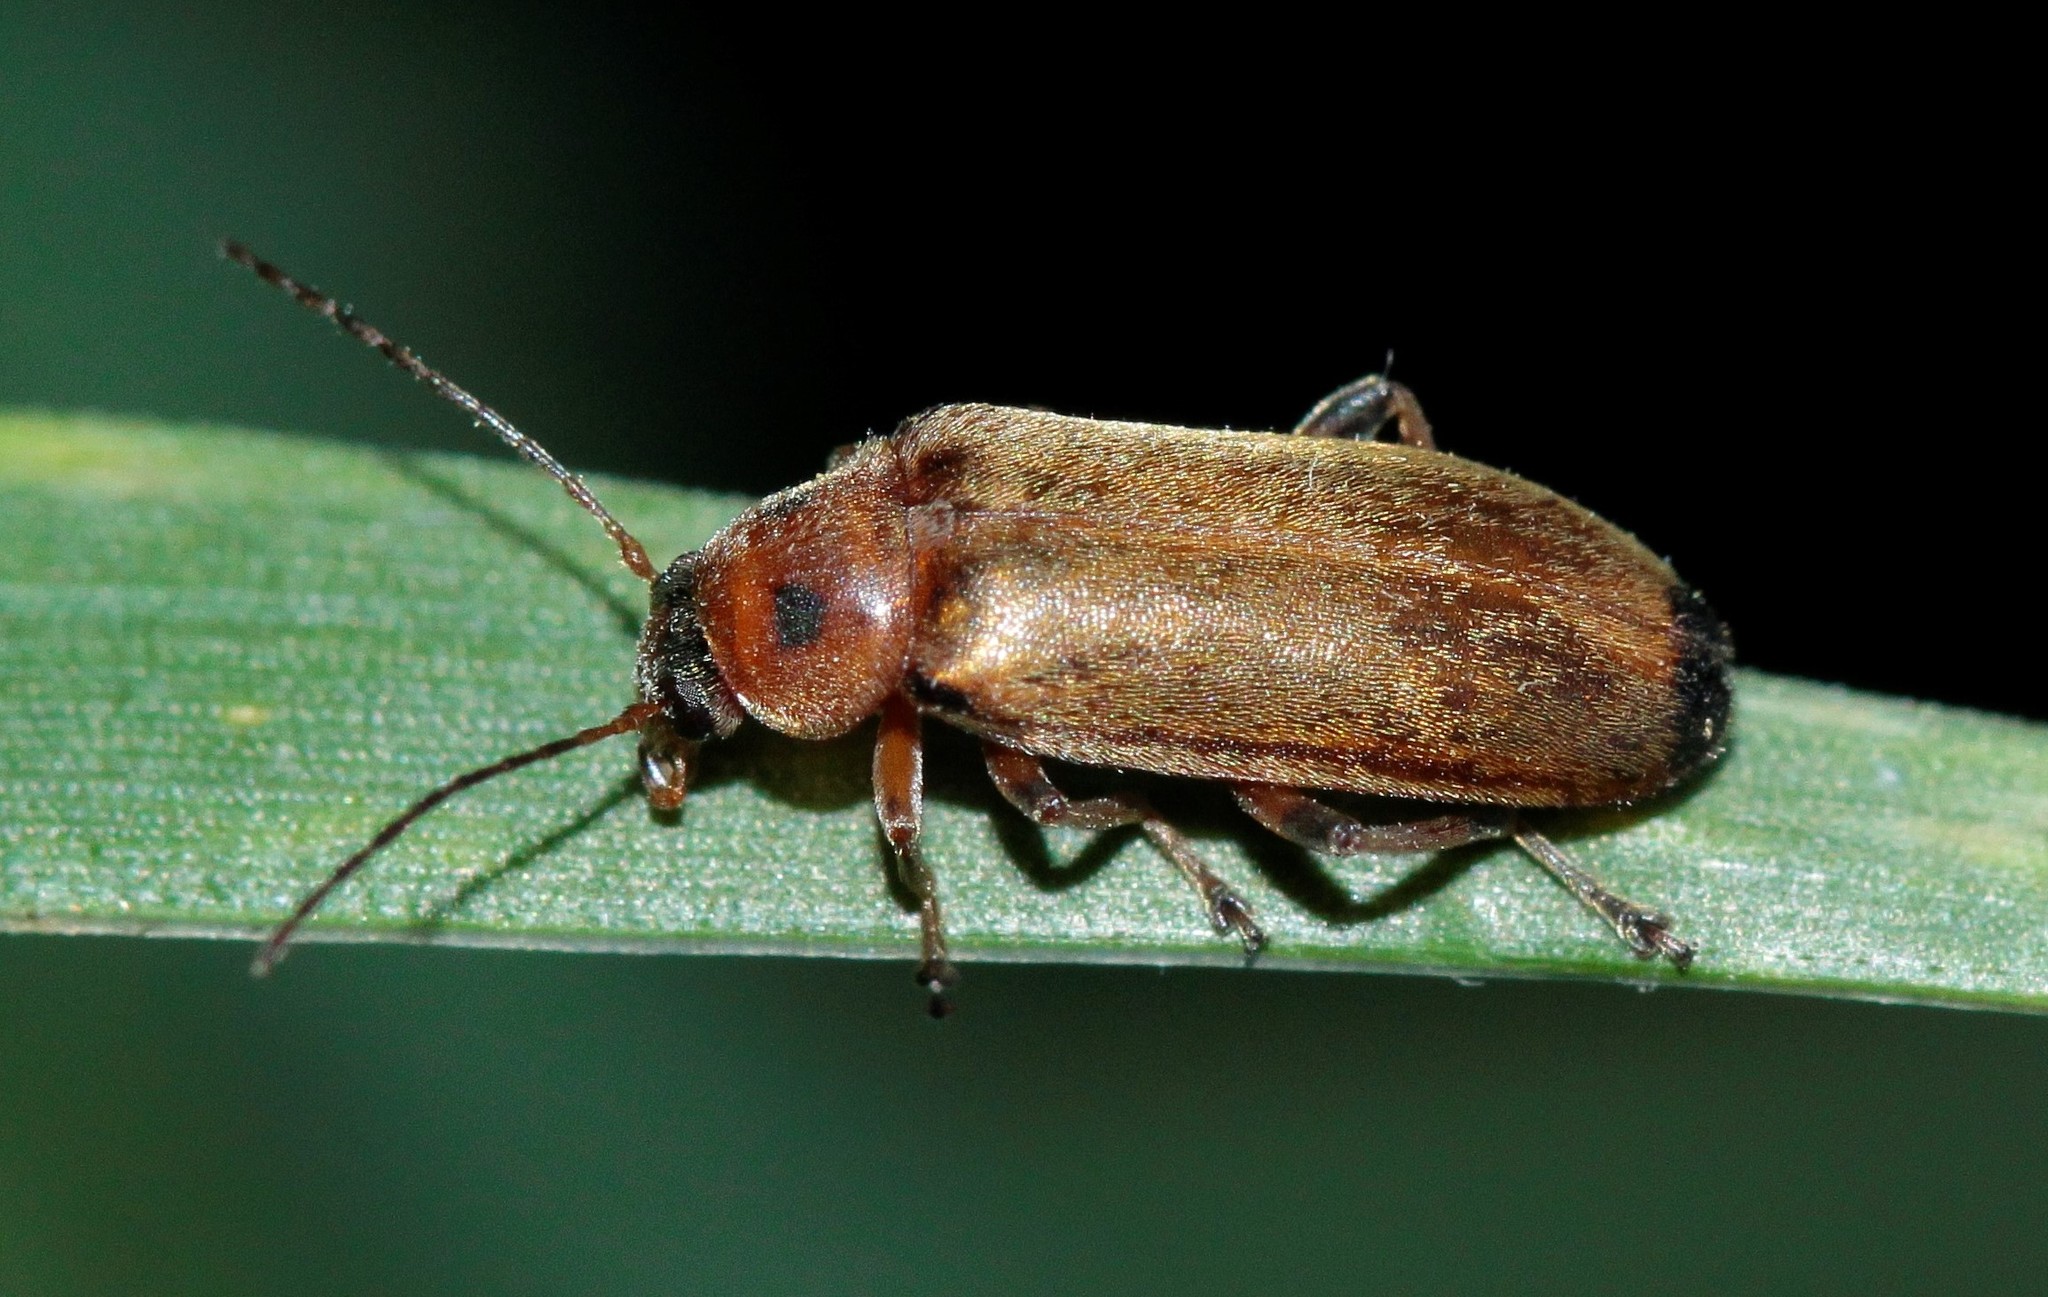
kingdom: Animalia
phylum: Arthropoda
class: Insecta
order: Coleoptera
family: Melandryidae
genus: Osphya
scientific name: Osphya bipunctata
